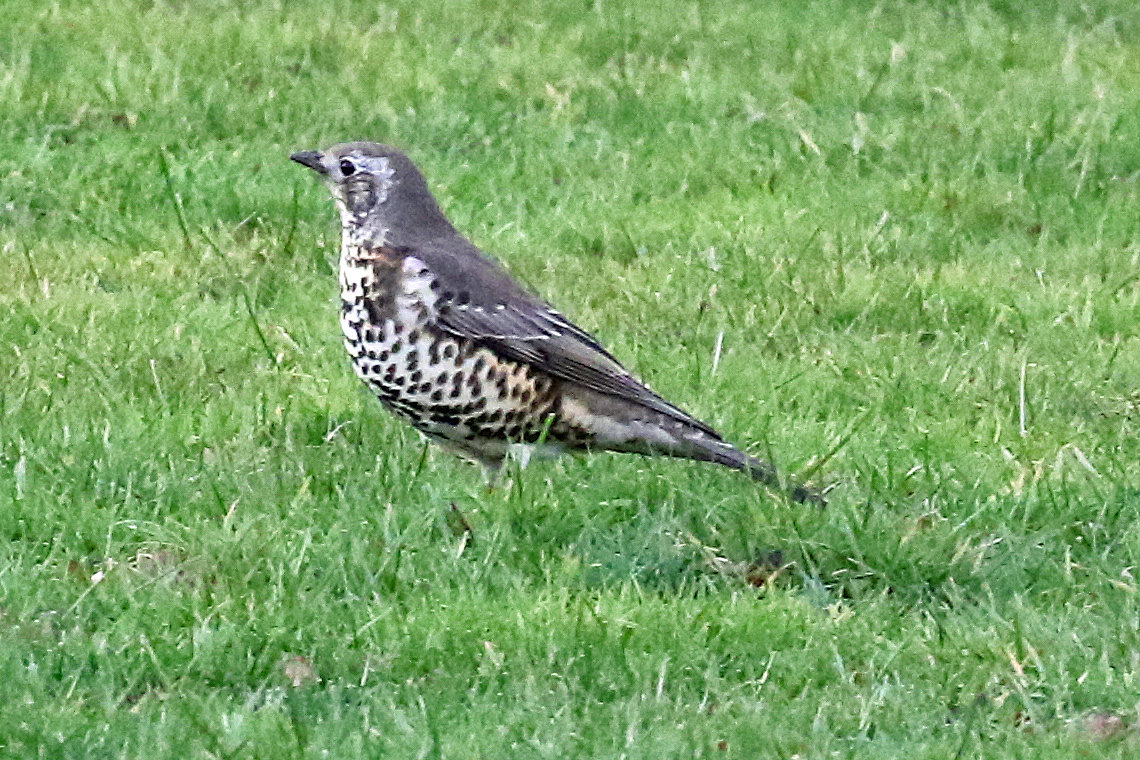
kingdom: Animalia
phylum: Chordata
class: Aves
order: Passeriformes
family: Turdidae
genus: Turdus
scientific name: Turdus viscivorus
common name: Mistle thrush
